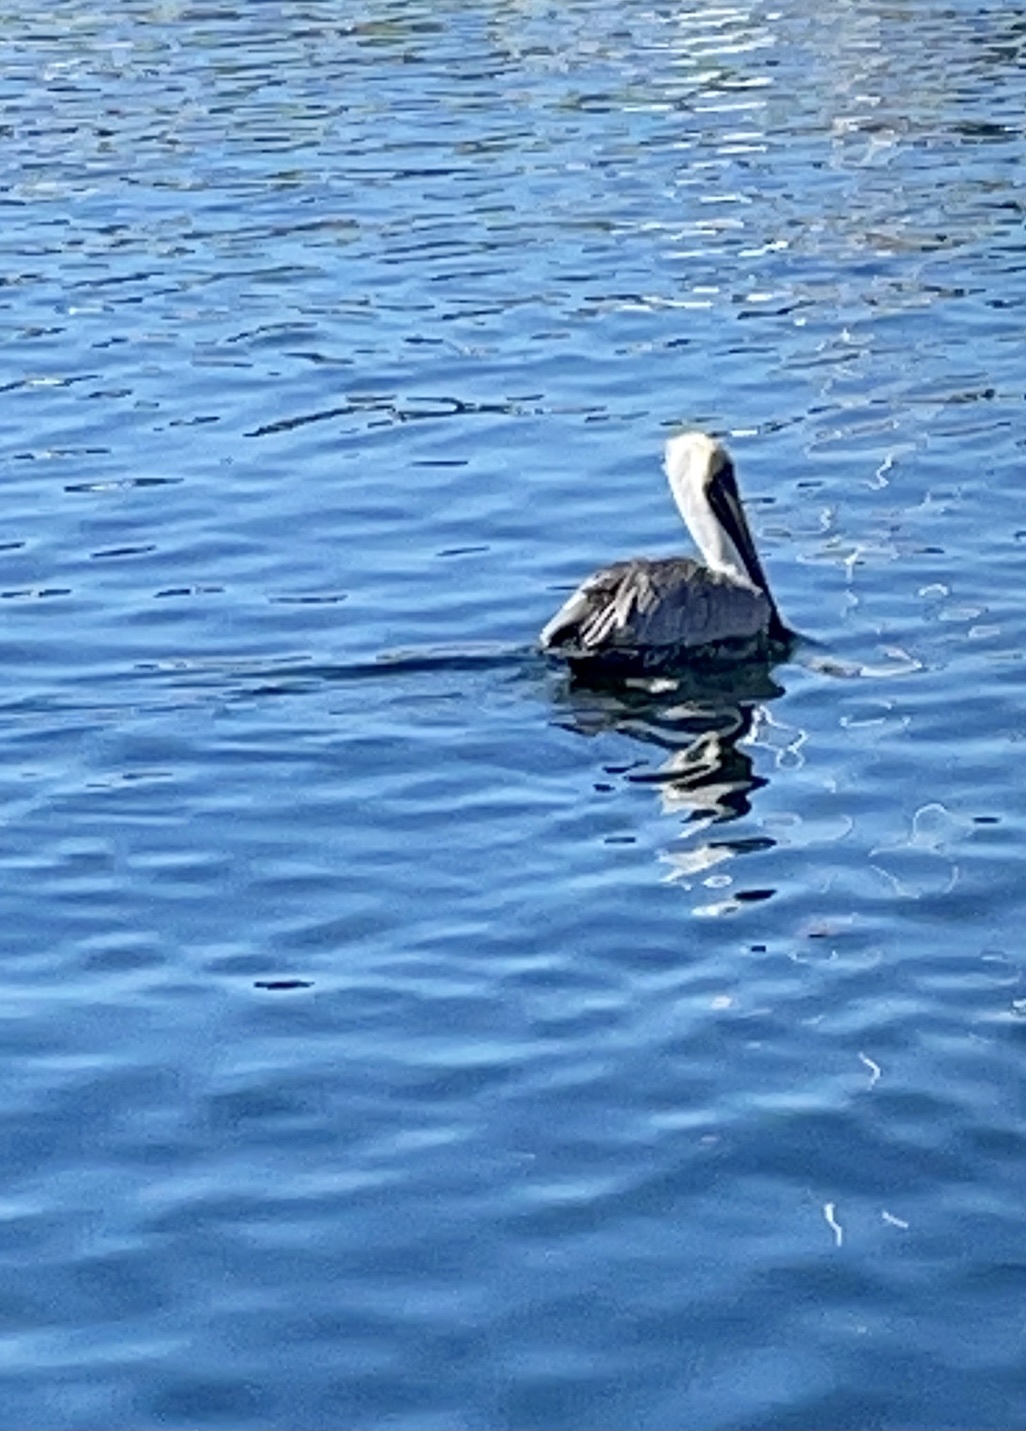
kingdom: Animalia
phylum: Chordata
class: Aves
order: Pelecaniformes
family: Pelecanidae
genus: Pelecanus
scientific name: Pelecanus occidentalis
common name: Brown pelican
